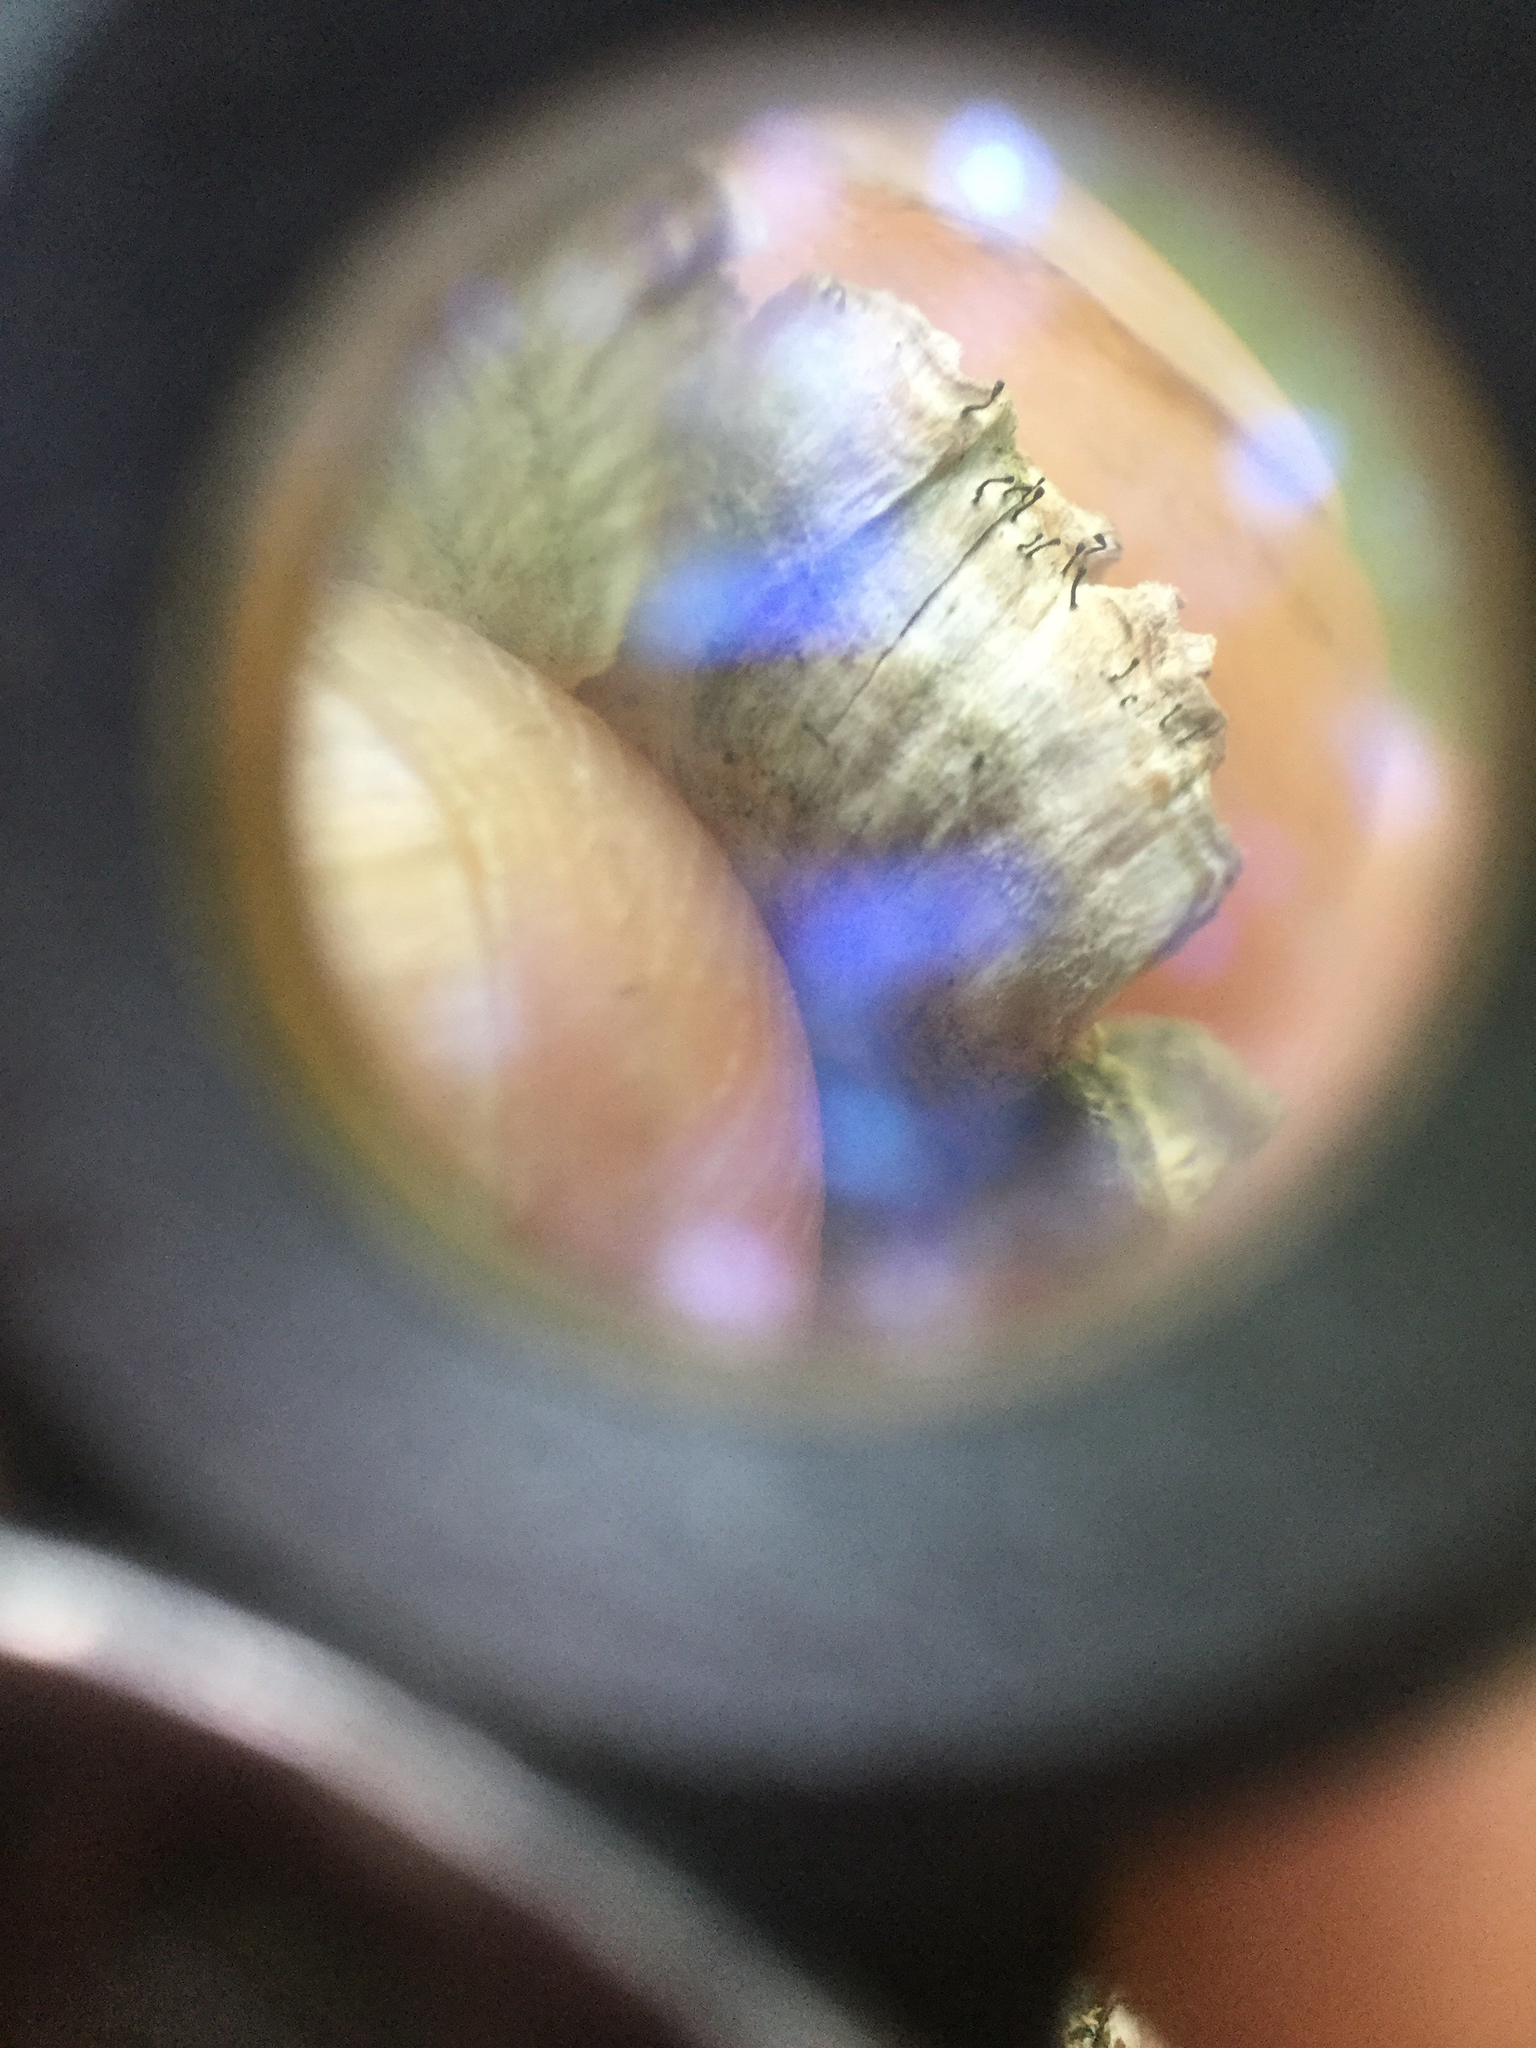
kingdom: Fungi
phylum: Ascomycota
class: Eurotiomycetes
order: Mycocaliciales
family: Mycocaliciaceae
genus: Phaeocalicium
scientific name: Phaeocalicium polyporaeum
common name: Fairy pins
